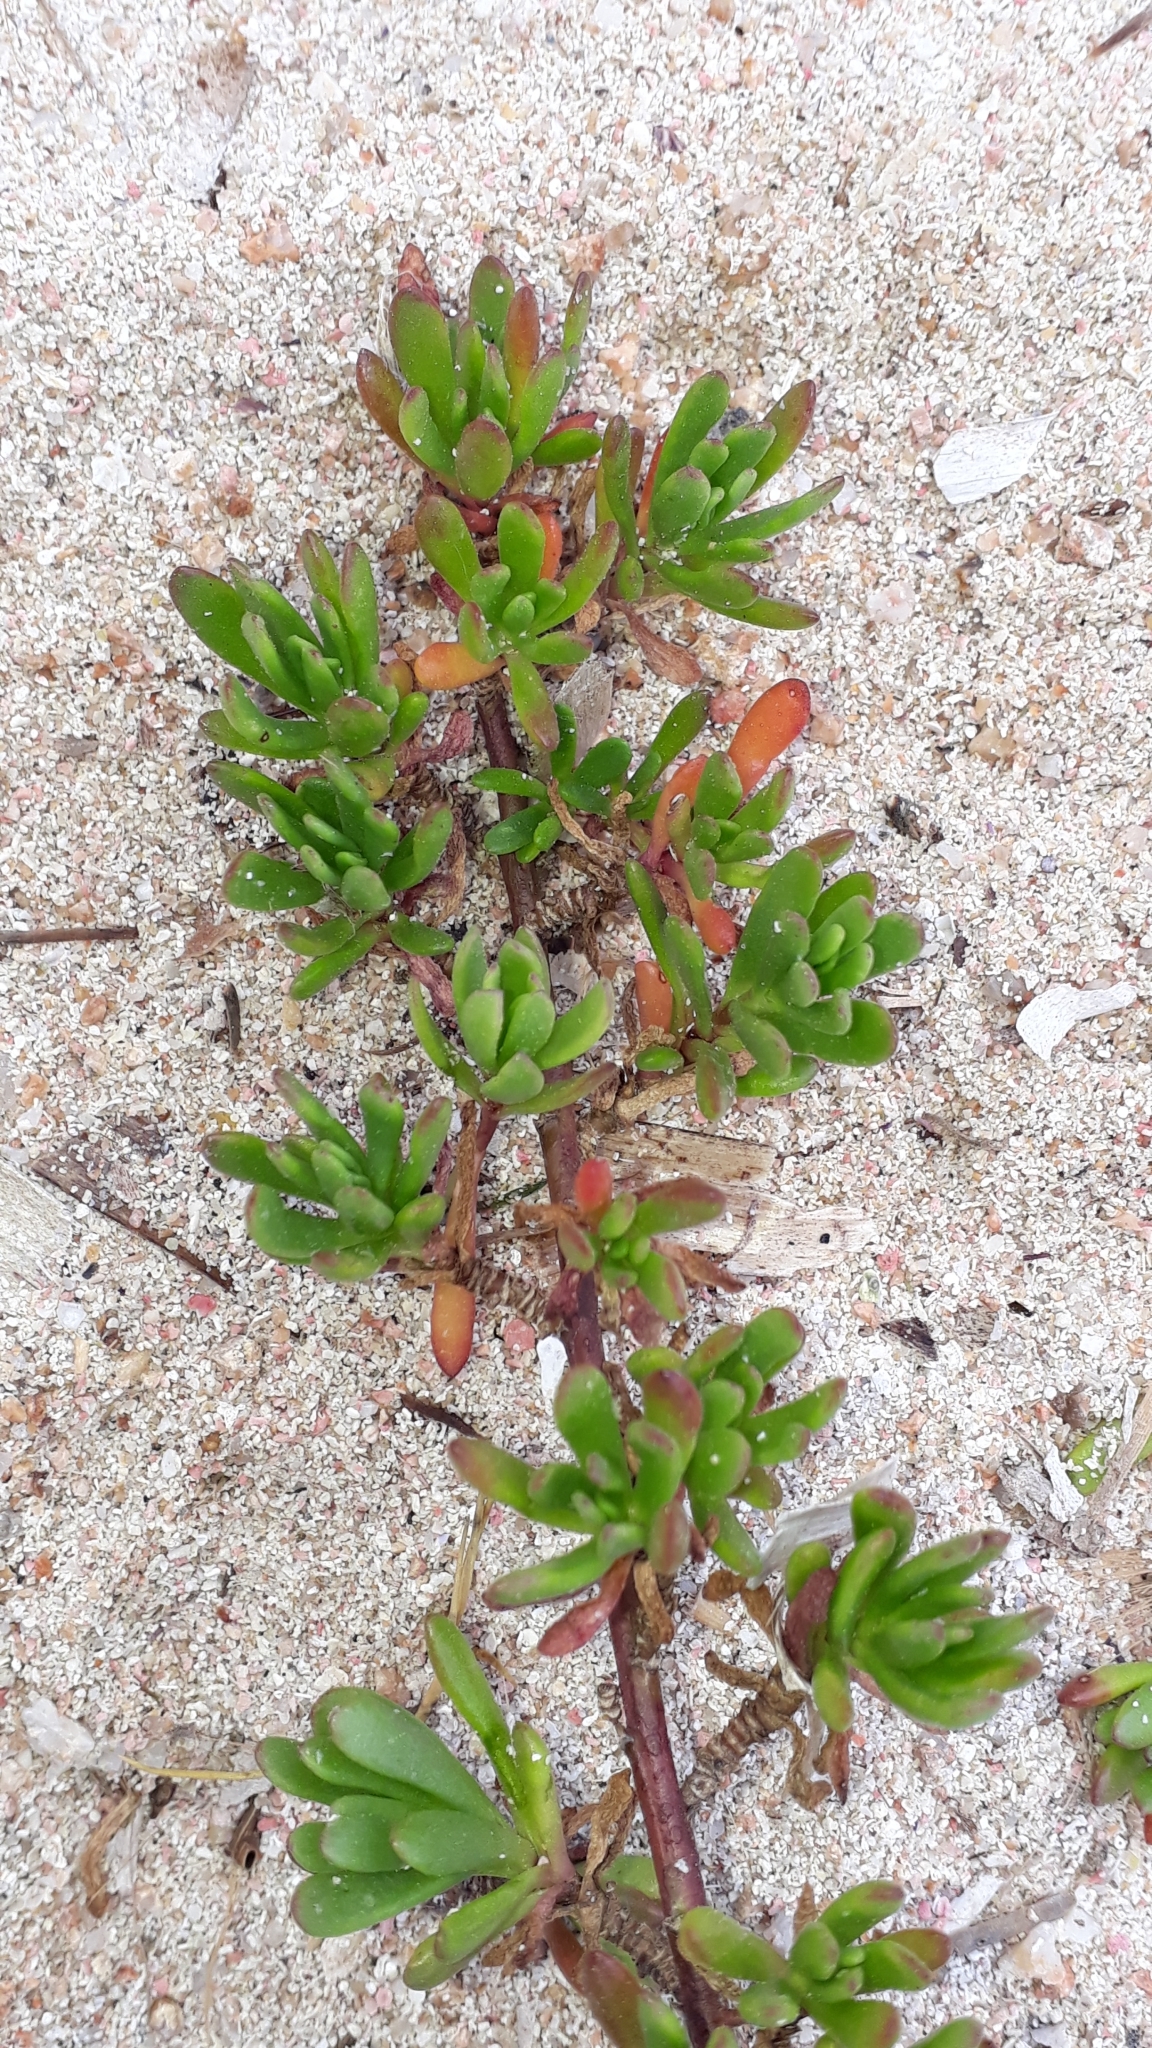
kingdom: Plantae
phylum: Tracheophyta
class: Magnoliopsida
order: Asterales
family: Asteraceae
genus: Limbarda
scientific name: Limbarda crithmoides
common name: Golden samphire
